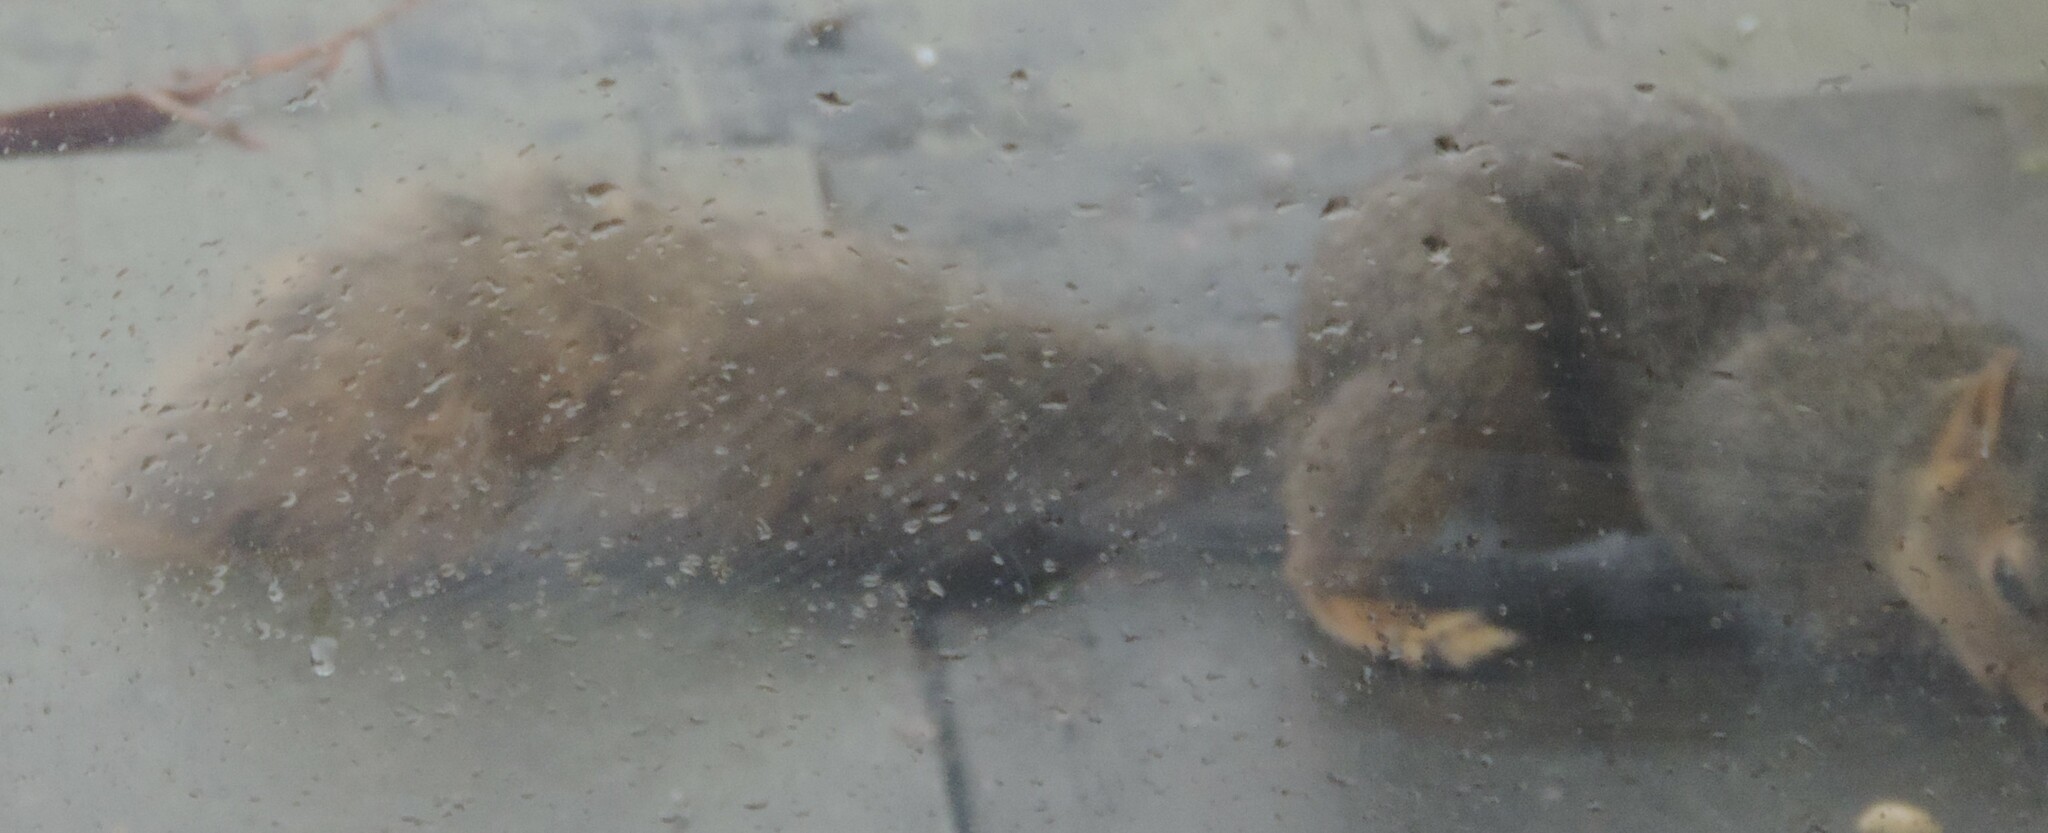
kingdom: Animalia
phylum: Chordata
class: Mammalia
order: Rodentia
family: Sciuridae
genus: Sciurus
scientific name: Sciurus niger
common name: Fox squirrel
